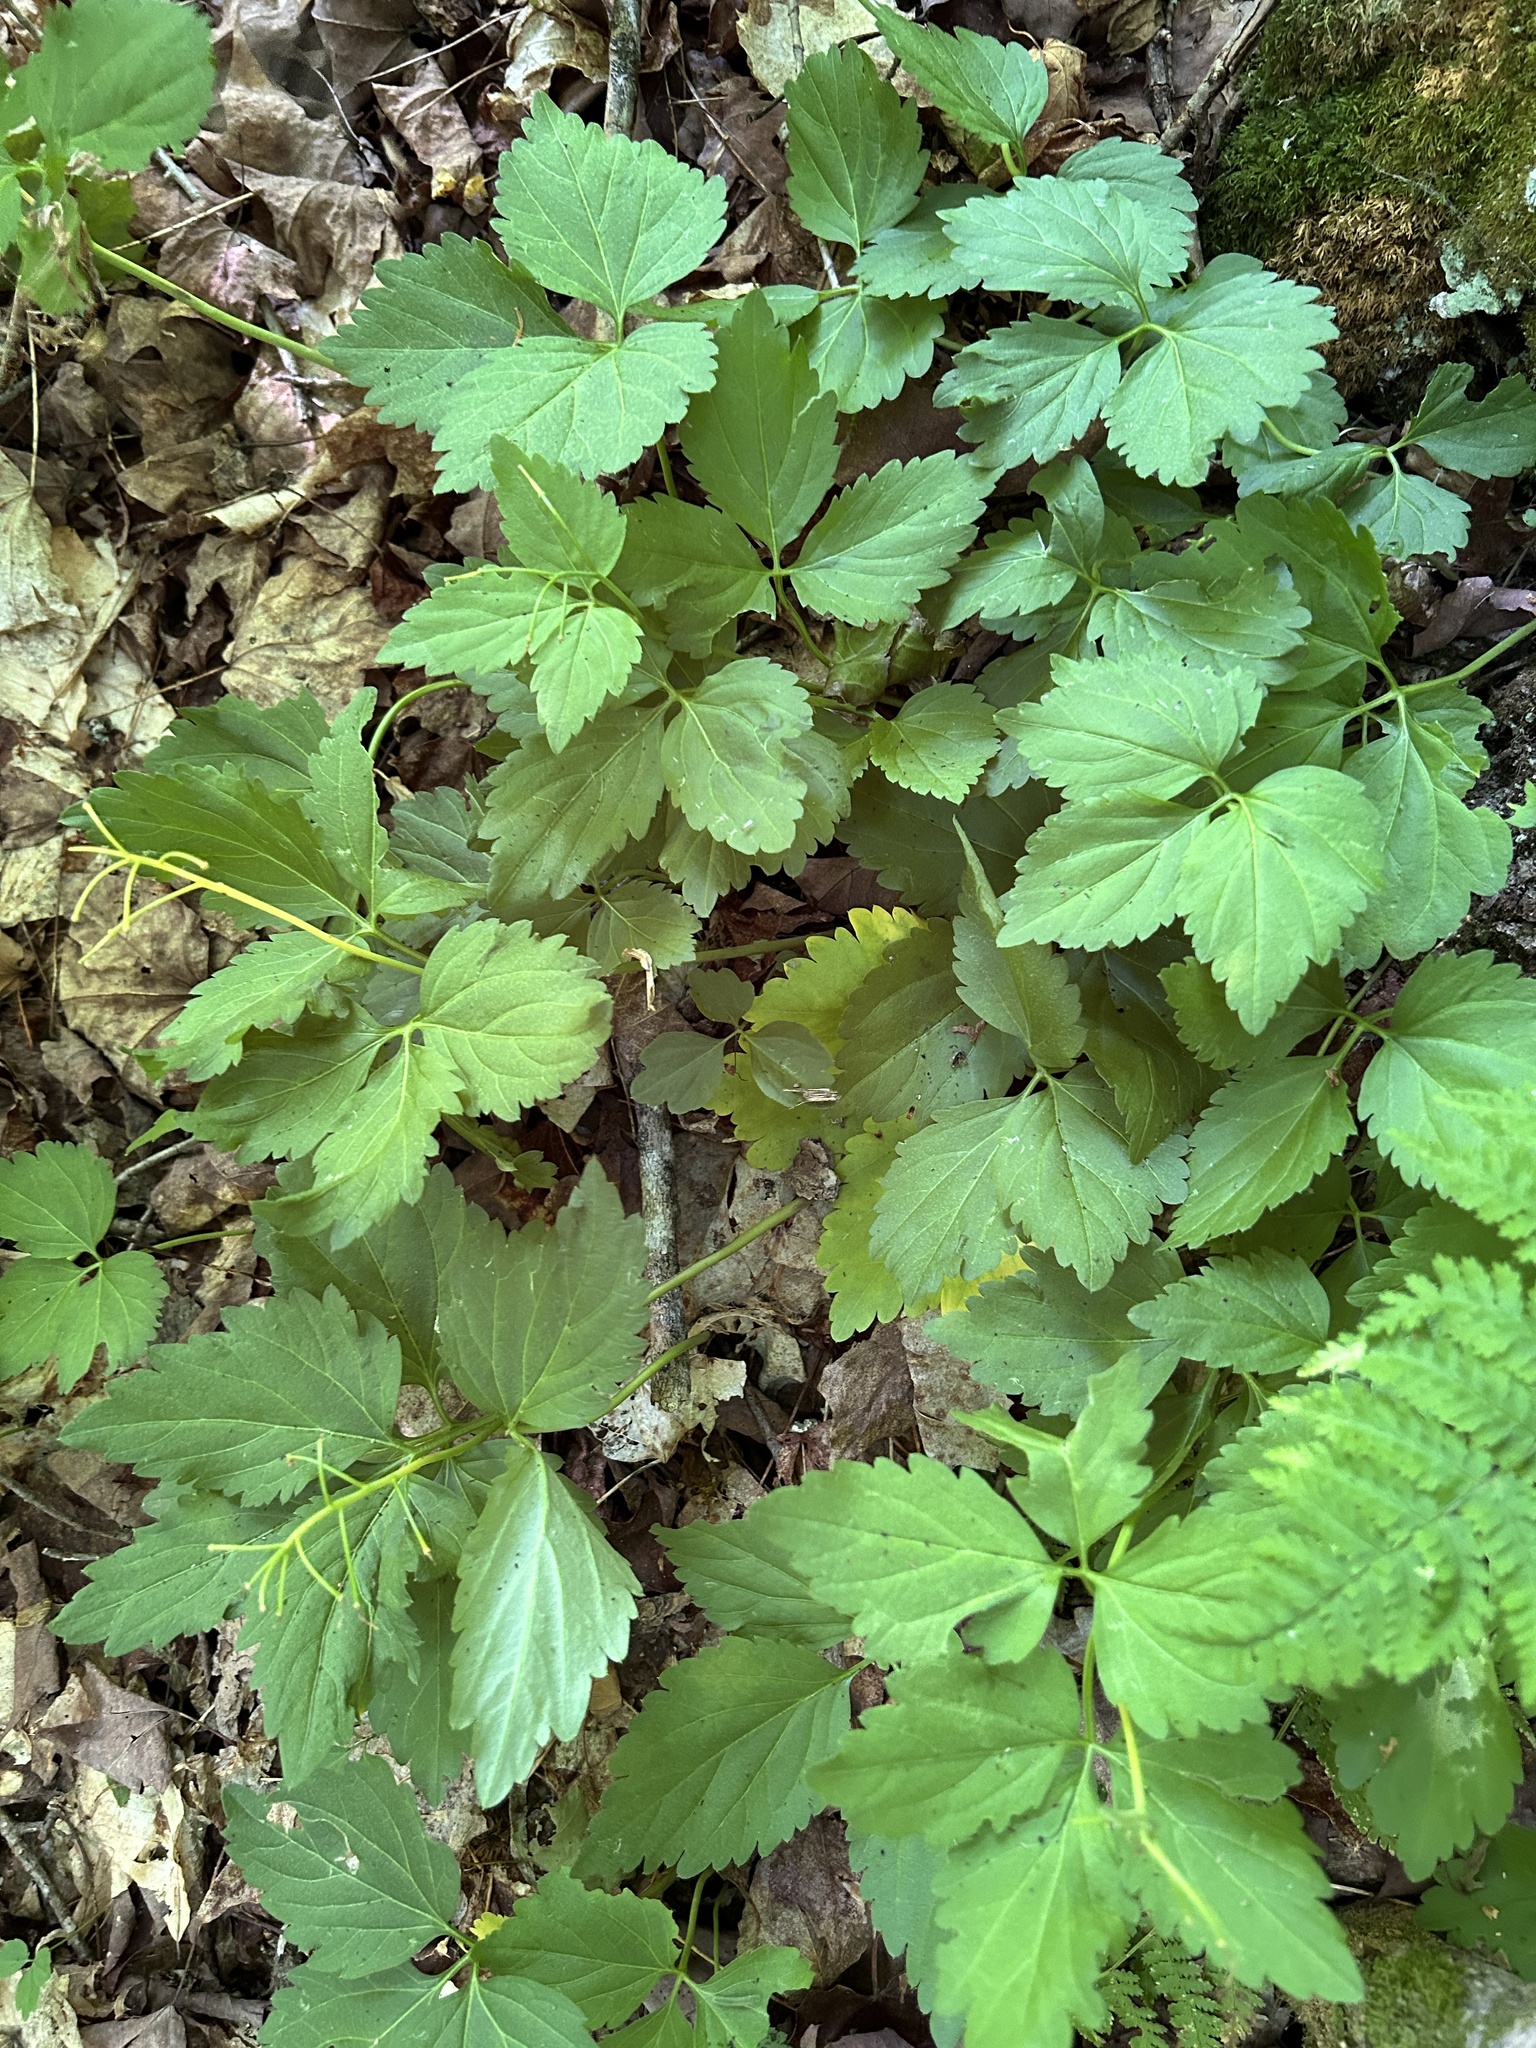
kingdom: Plantae
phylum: Tracheophyta
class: Magnoliopsida
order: Brassicales
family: Brassicaceae
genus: Cardamine
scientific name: Cardamine diphylla
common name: Broad-leaved toothwort
